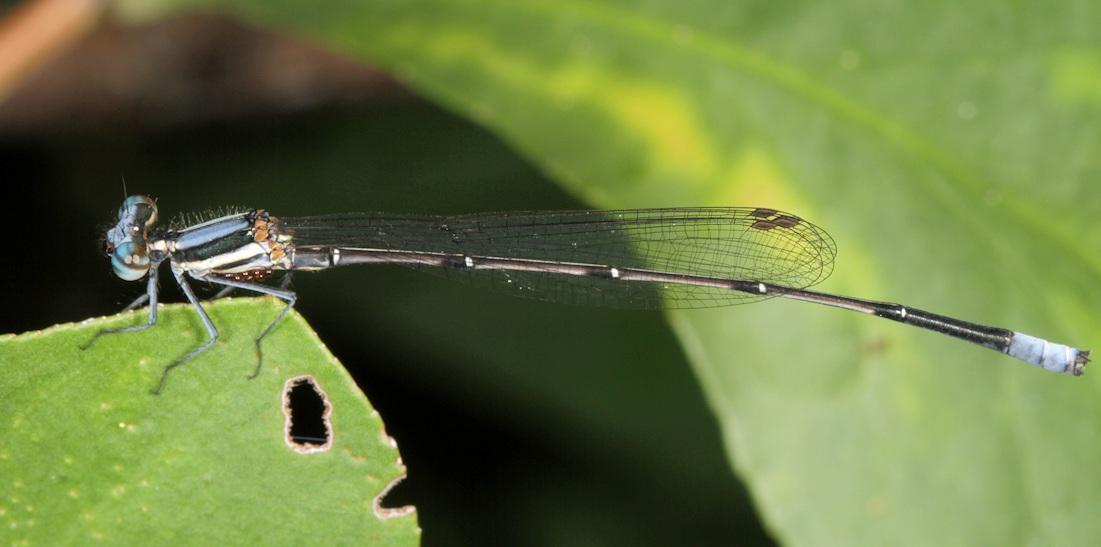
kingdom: Animalia
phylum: Arthropoda
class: Insecta
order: Odonata
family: Platycnemididae
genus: Elattoneura
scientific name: Elattoneura glauca
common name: Common threadtail
